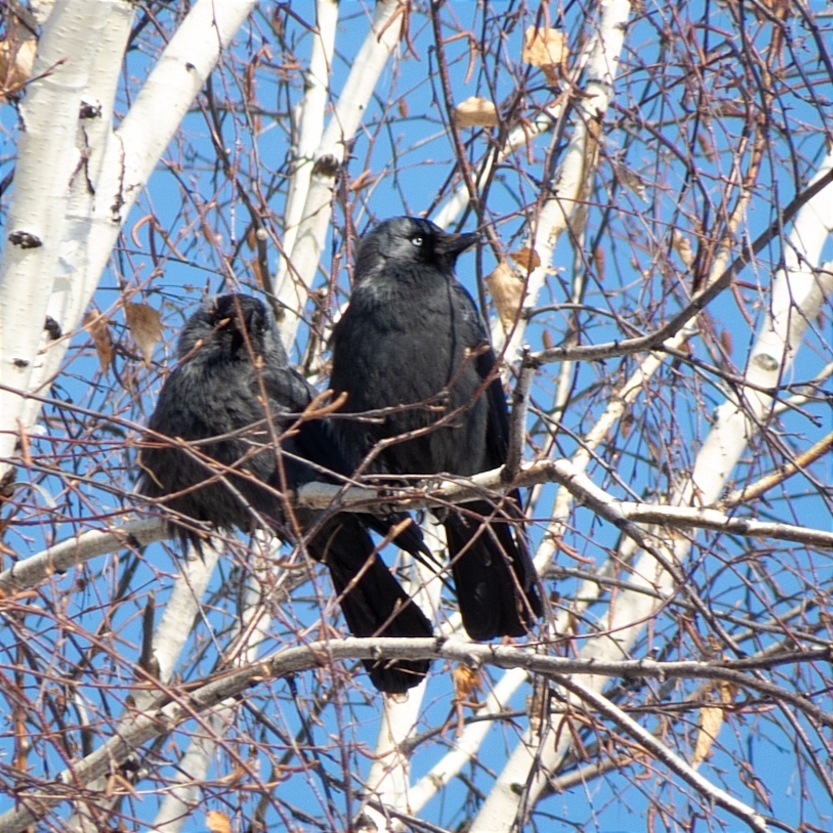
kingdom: Animalia
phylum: Chordata
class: Aves
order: Passeriformes
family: Corvidae
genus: Coloeus
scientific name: Coloeus monedula
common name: Western jackdaw
